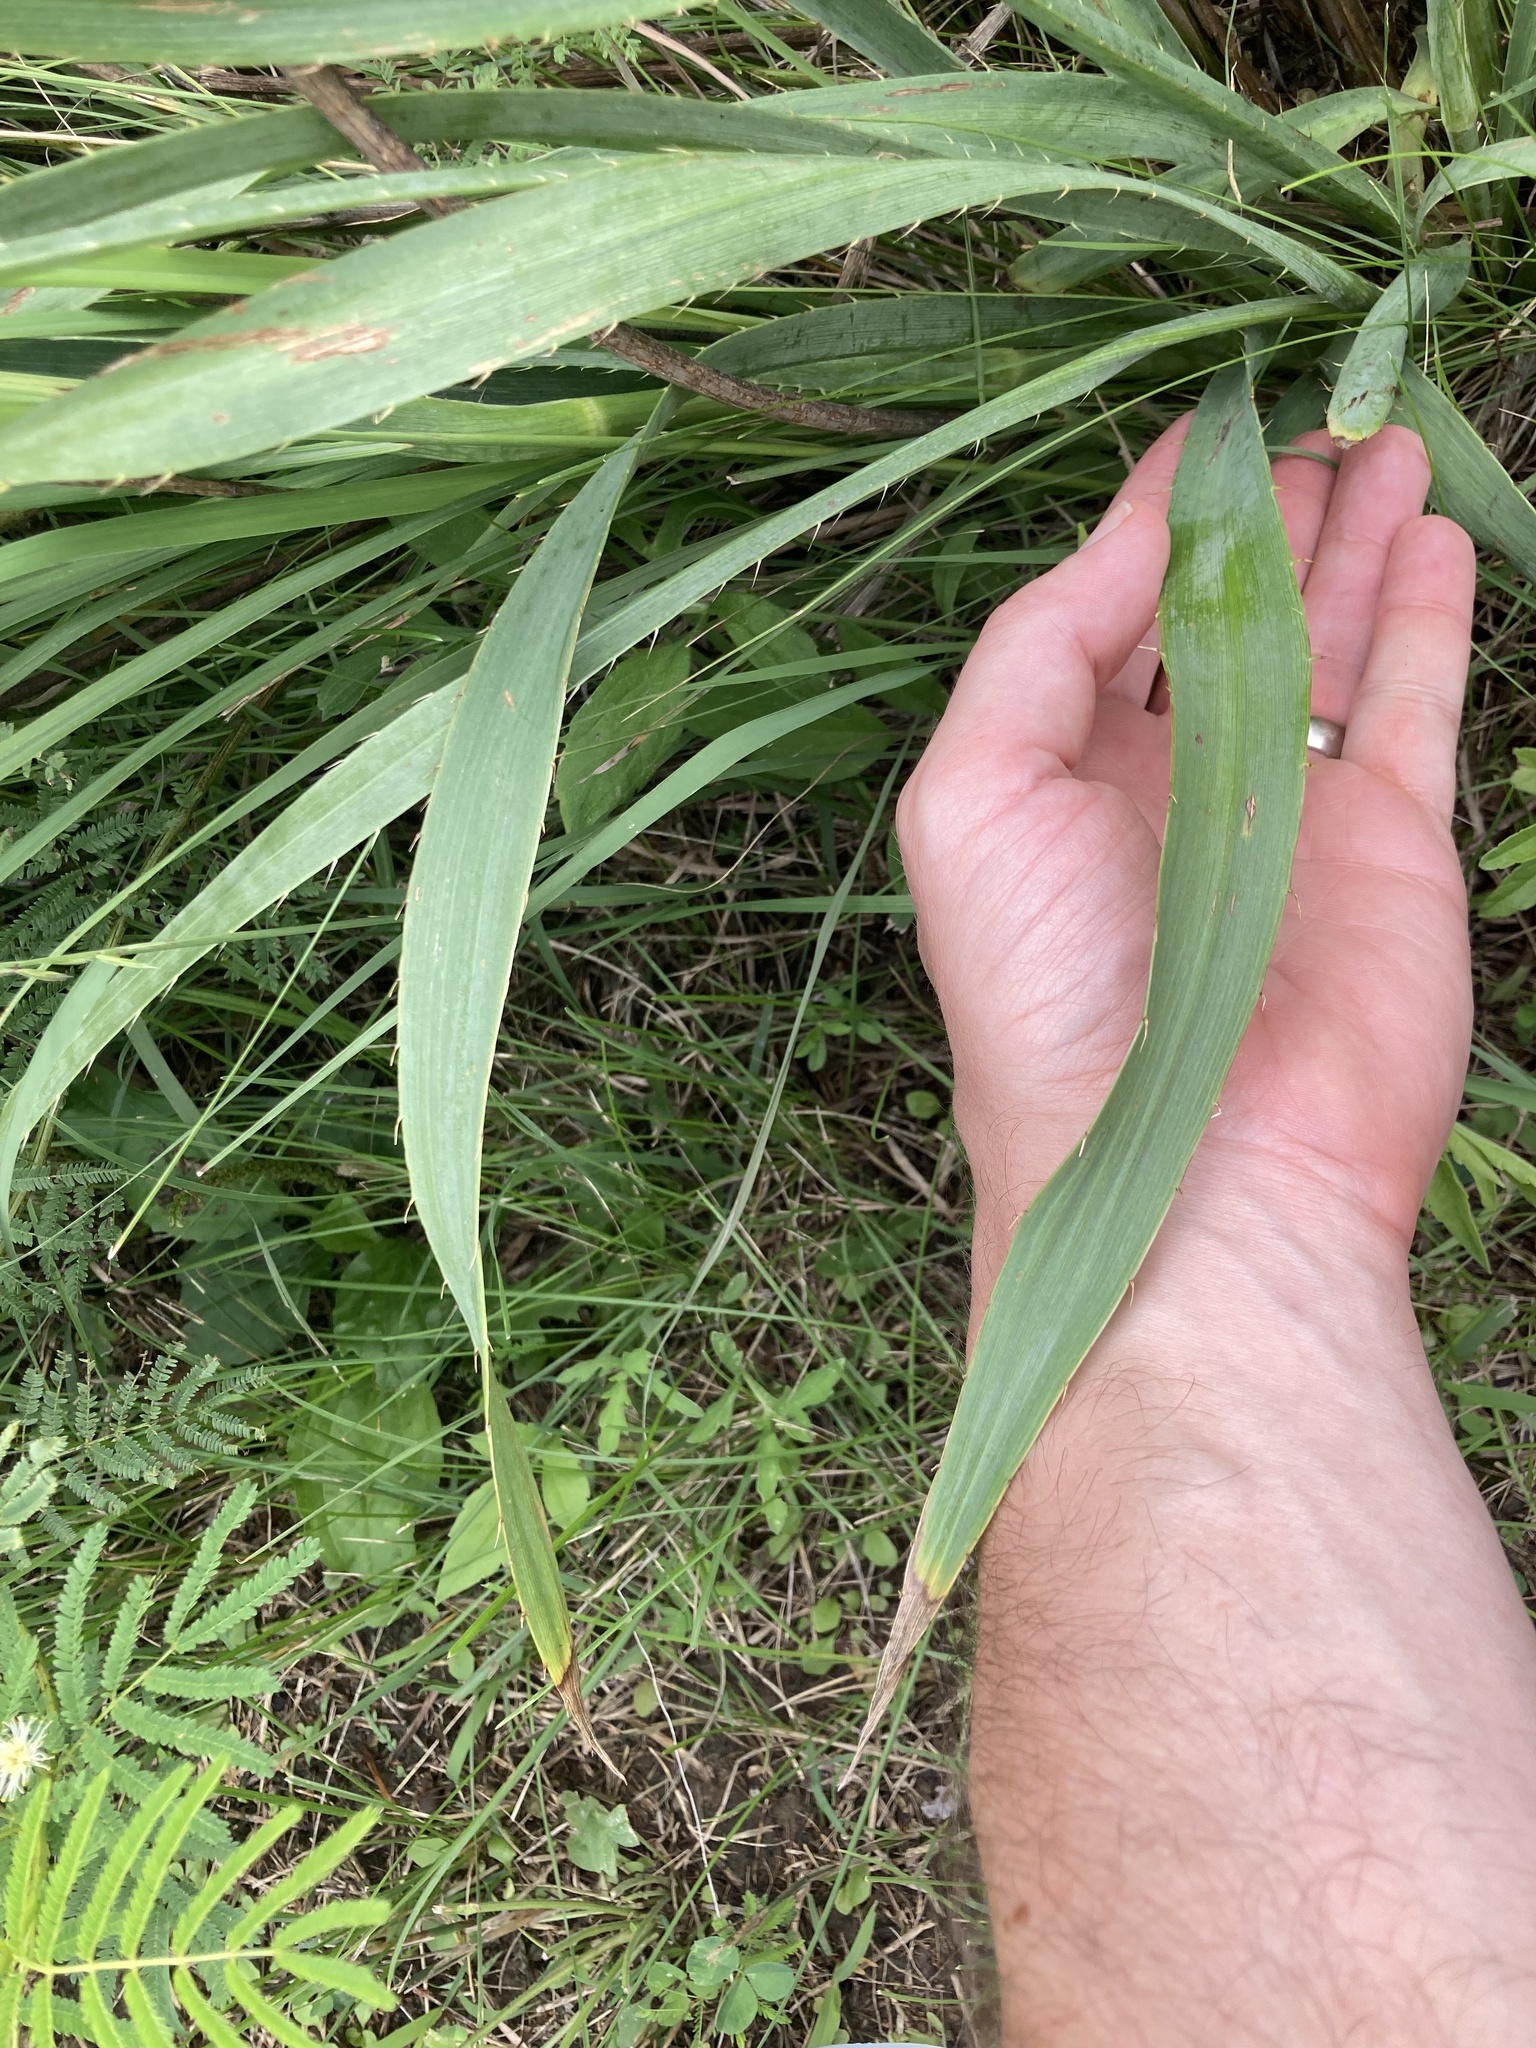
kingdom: Plantae
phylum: Tracheophyta
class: Magnoliopsida
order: Apiales
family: Apiaceae
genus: Eryngium
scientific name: Eryngium yuccifolium
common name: Button eryngo
